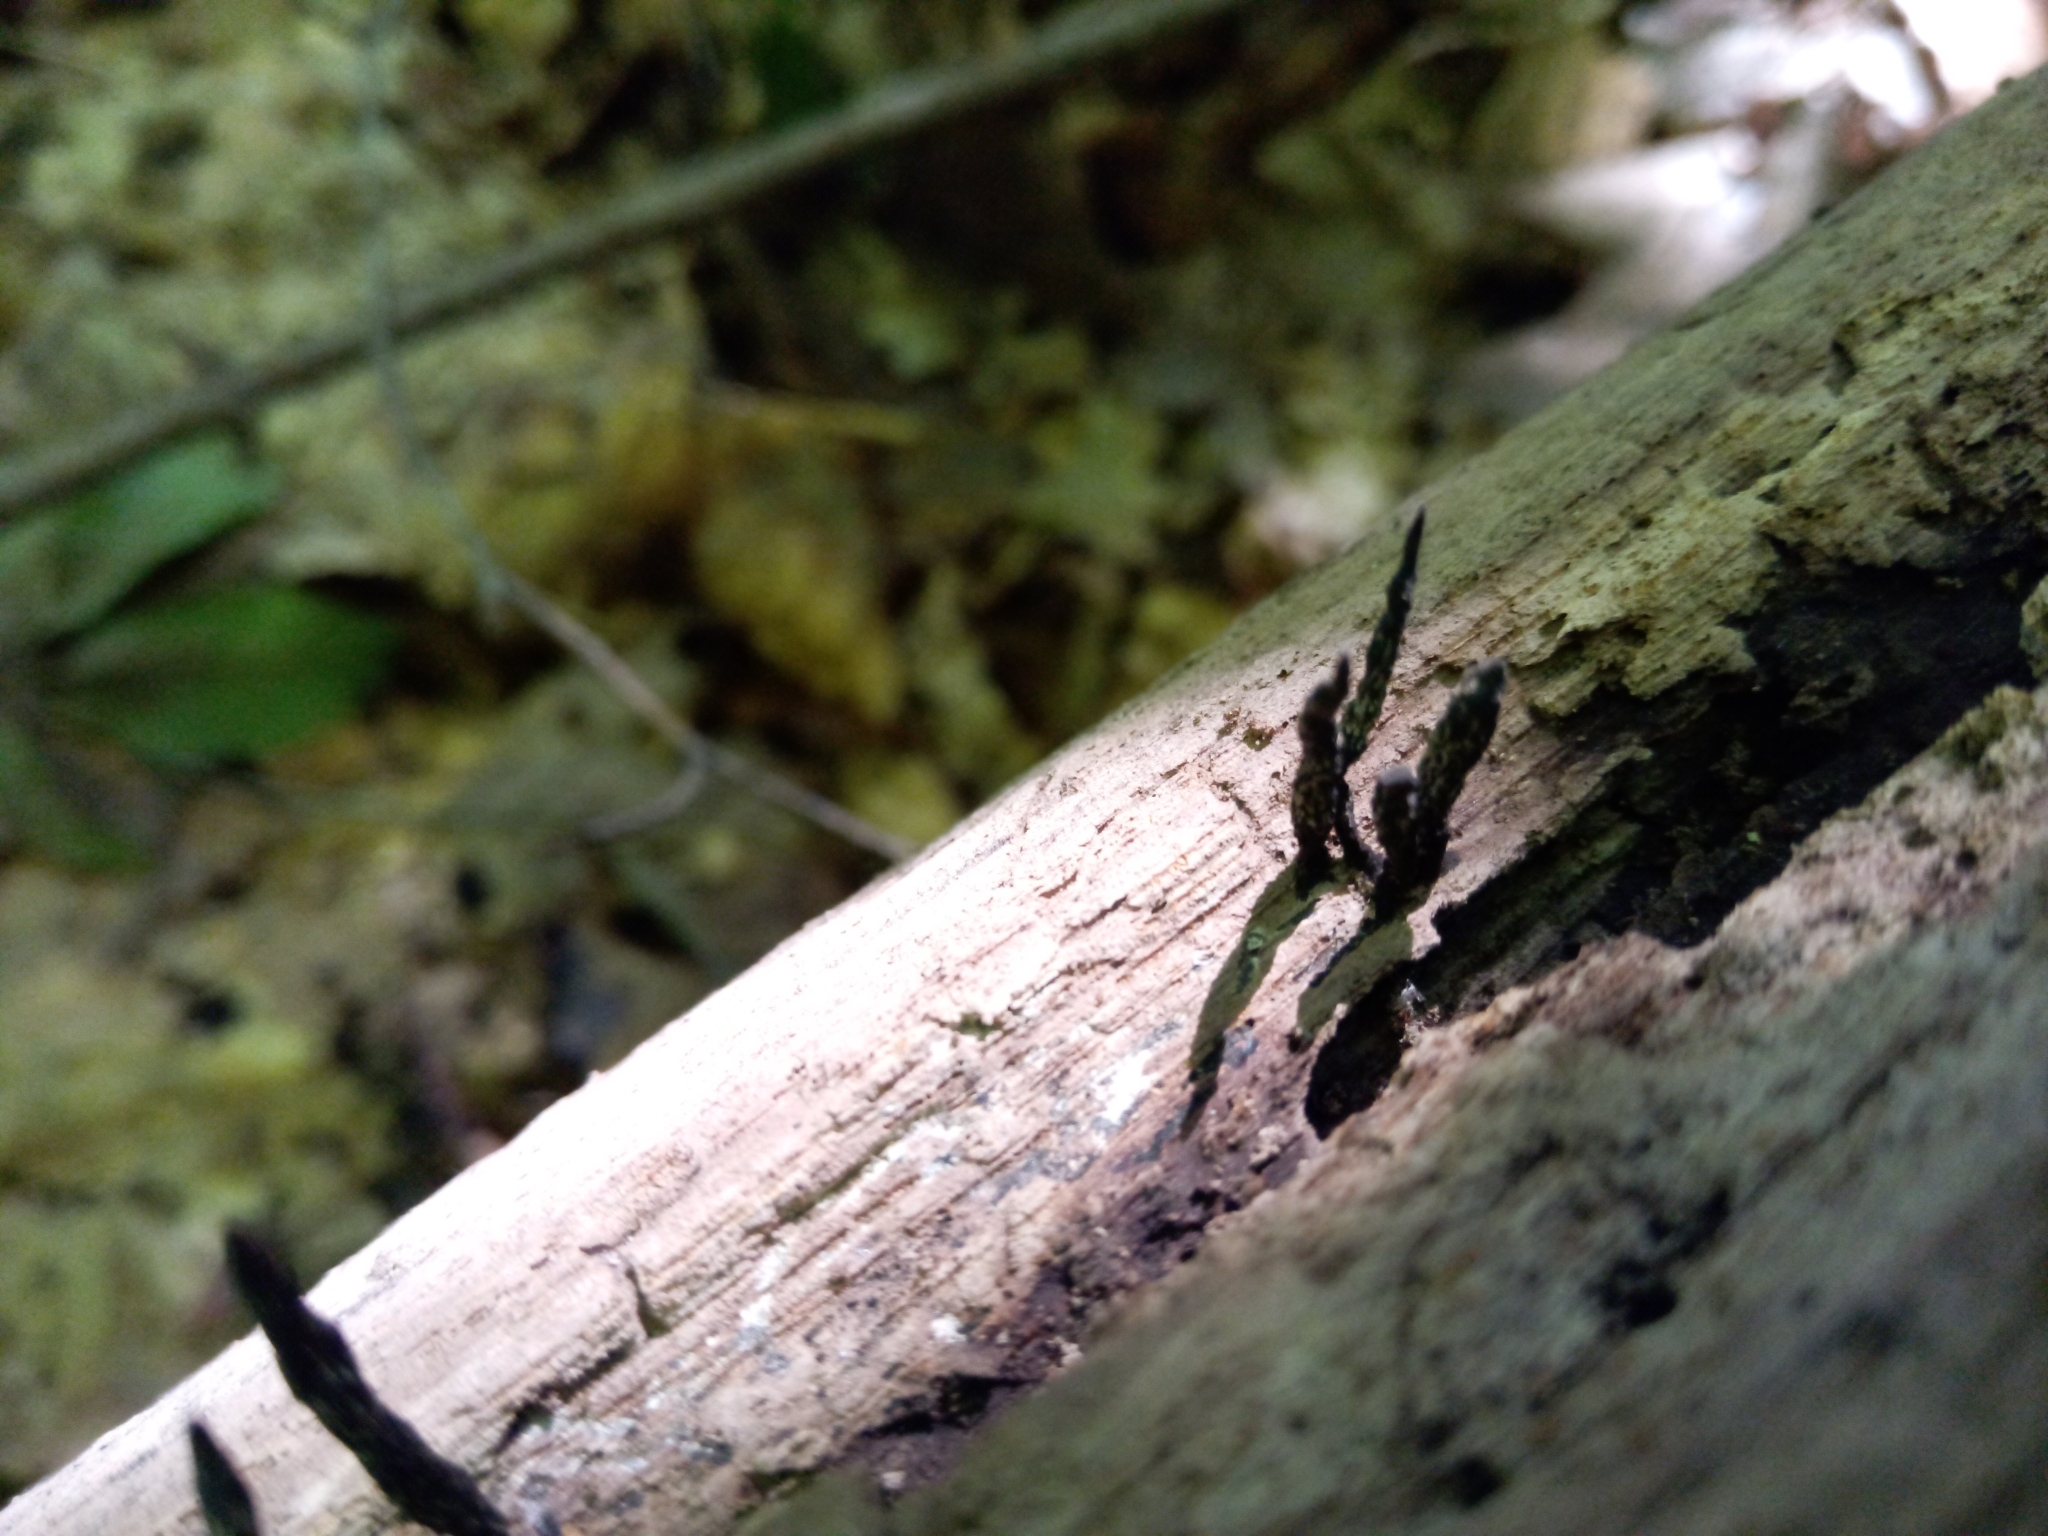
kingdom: Fungi
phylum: Ascomycota
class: Sordariomycetes
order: Xylariales
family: Xylariaceae
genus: Xylaria
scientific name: Xylaria hypoxylon
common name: Candle-snuff fungus
